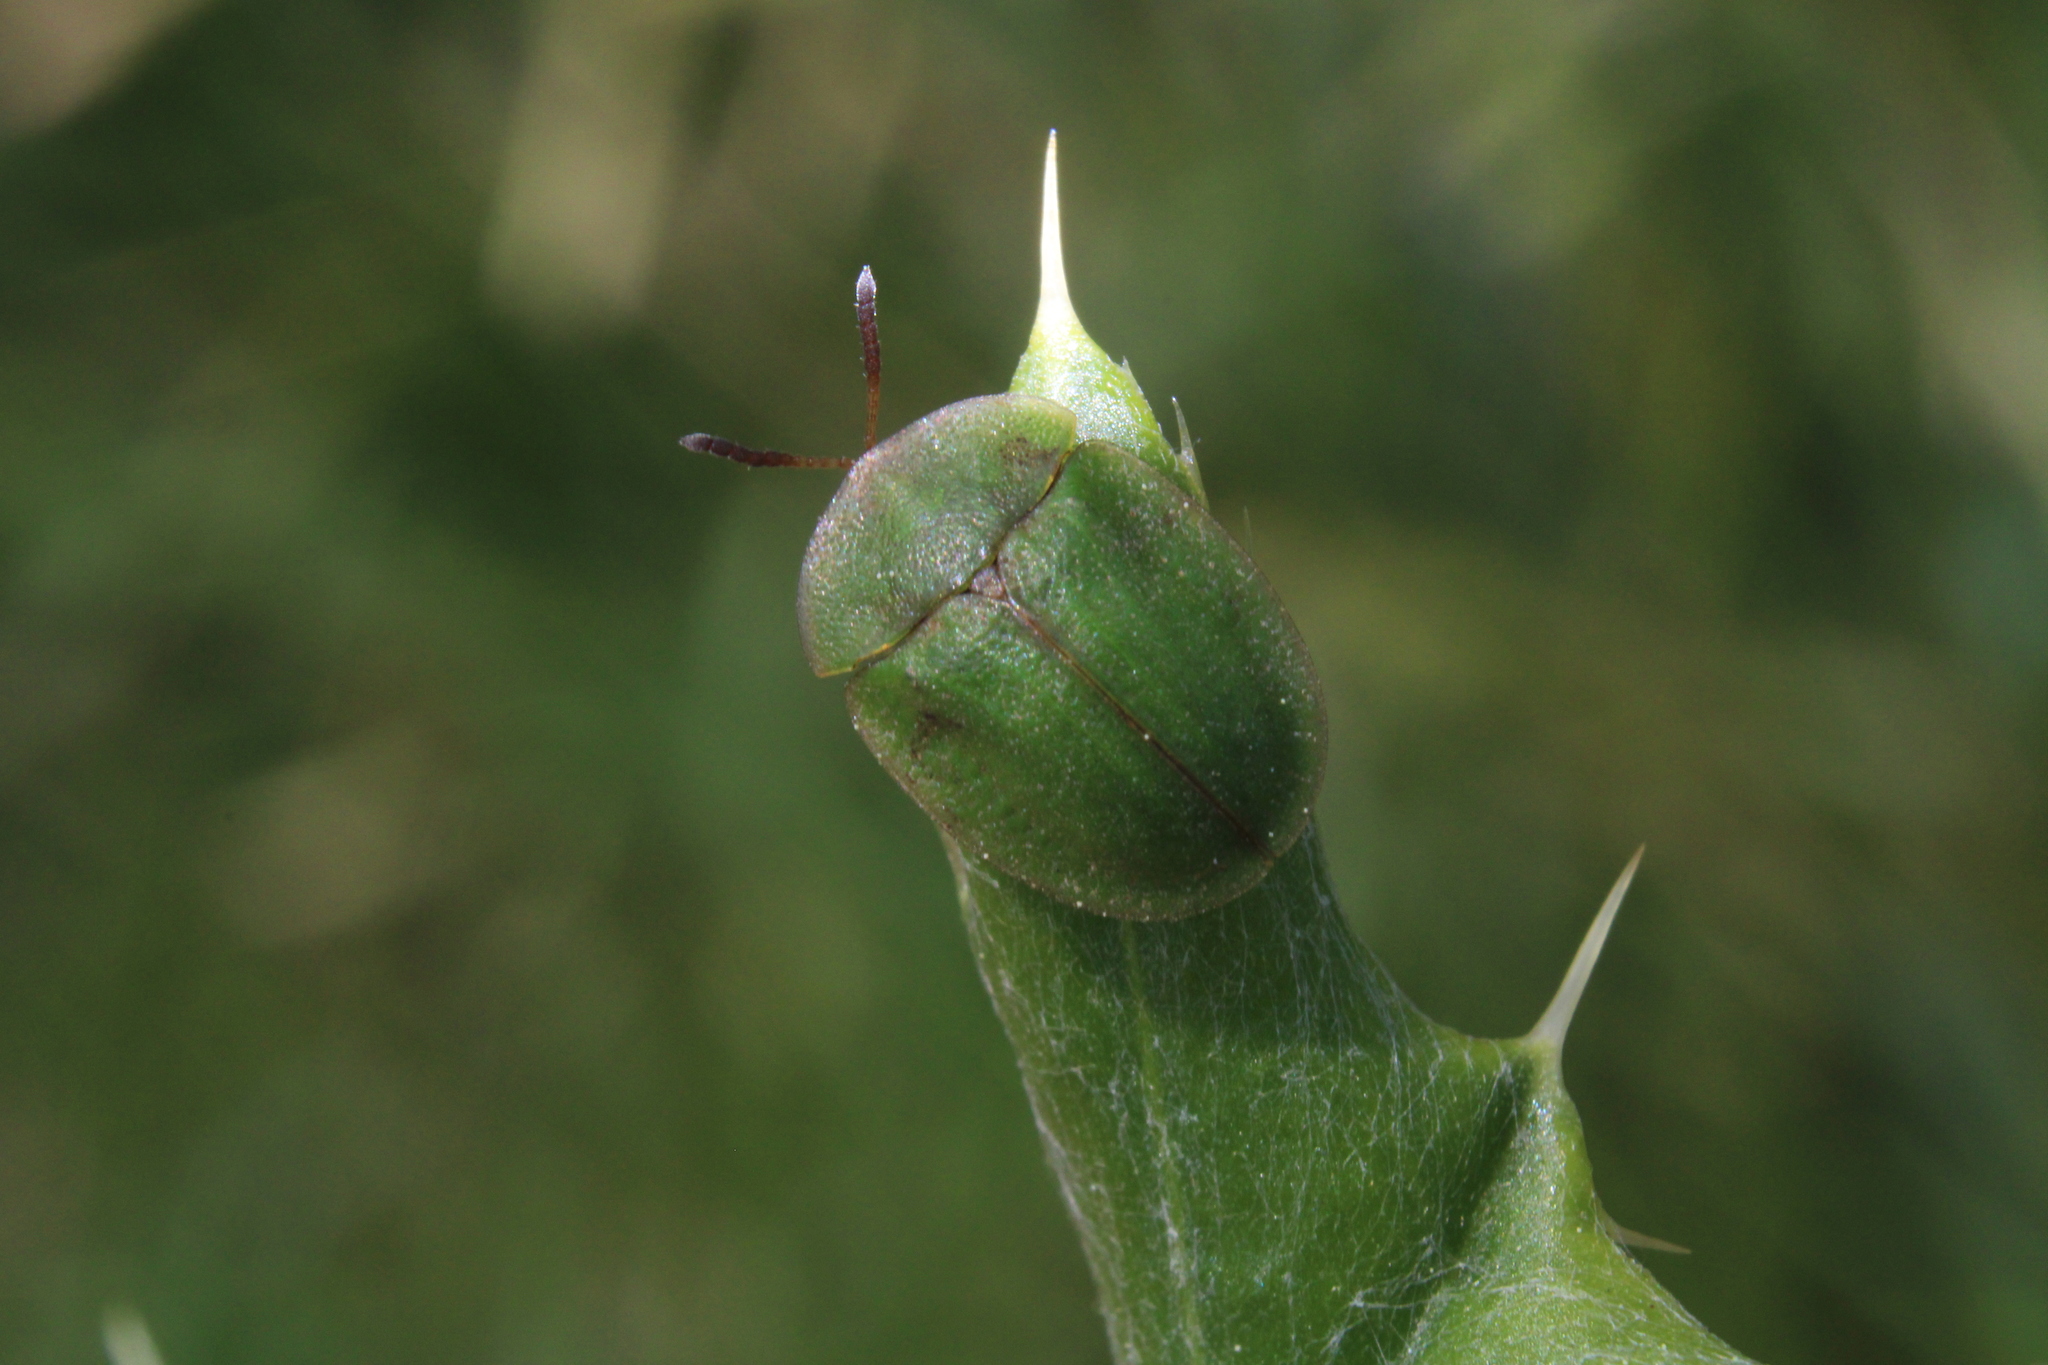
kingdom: Animalia
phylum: Arthropoda
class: Insecta
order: Coleoptera
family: Chrysomelidae
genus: Cassida
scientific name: Cassida rubiginosa
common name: Thistle tortoise beetle
